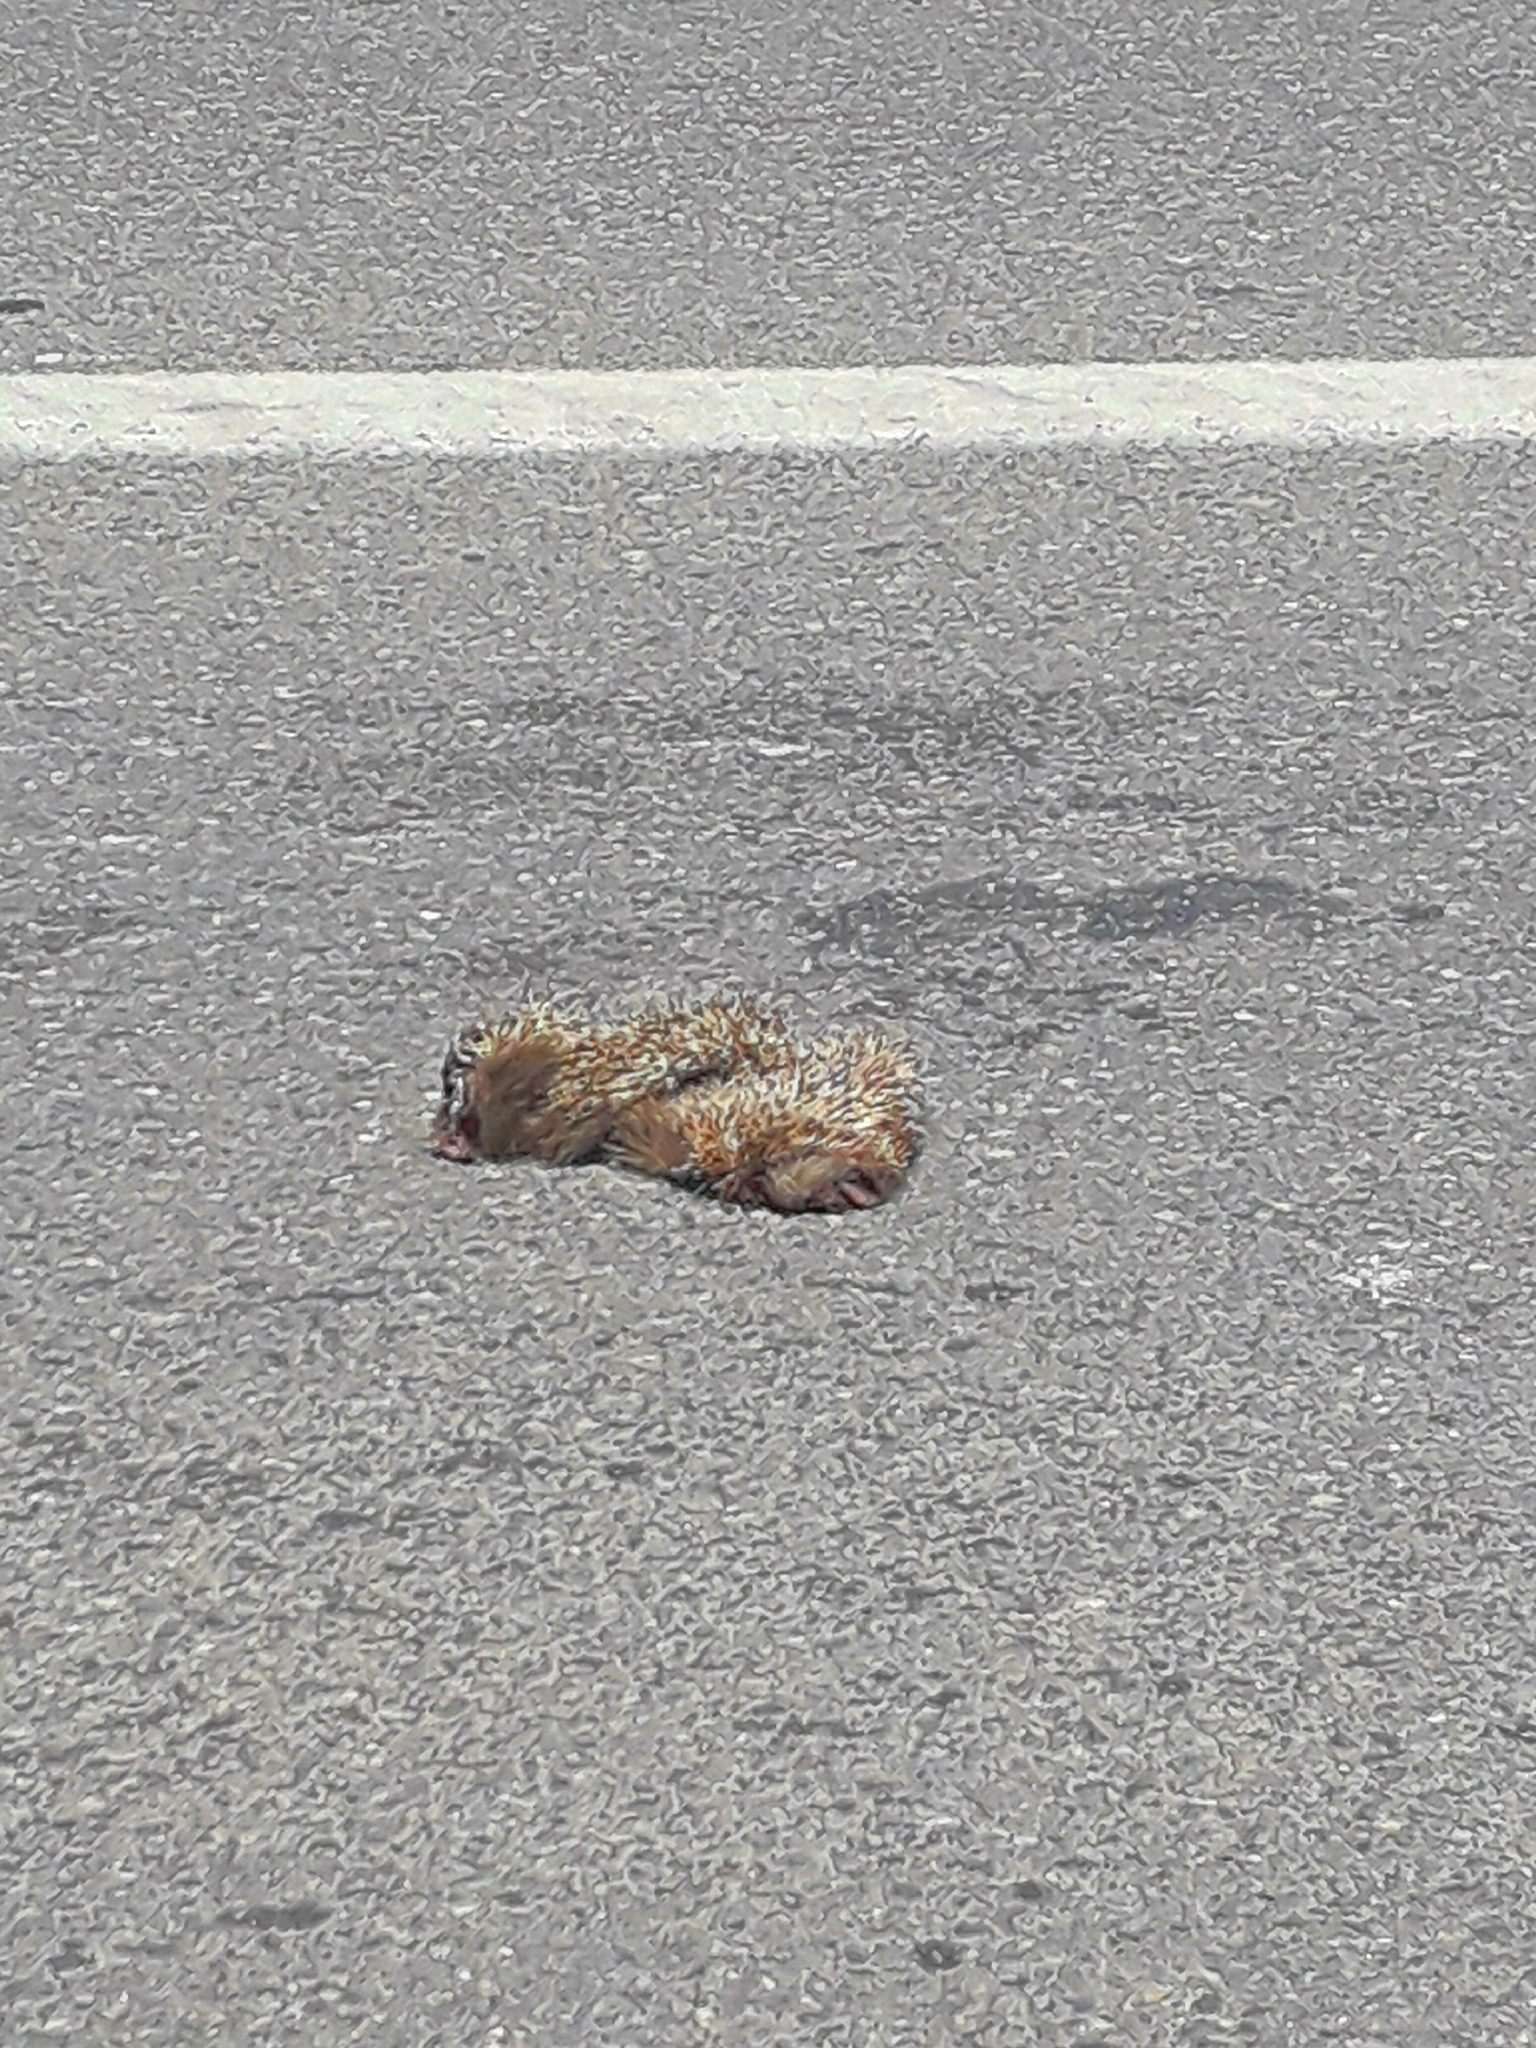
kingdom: Animalia
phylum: Chordata
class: Mammalia
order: Erinaceomorpha
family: Erinaceidae
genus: Erinaceus
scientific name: Erinaceus concolor
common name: Southern white-breasted hedgehog
